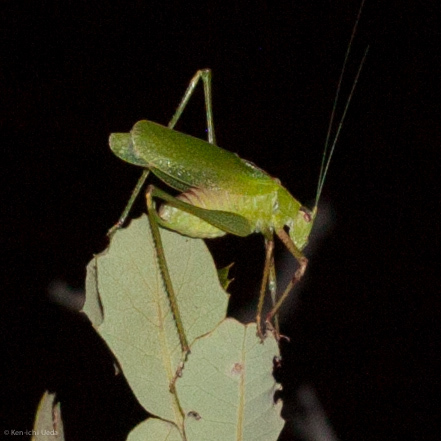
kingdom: Animalia
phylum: Arthropoda
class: Insecta
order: Orthoptera
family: Tettigoniidae
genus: Platylyra
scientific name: Platylyra californica
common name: Chaparral false katydid
